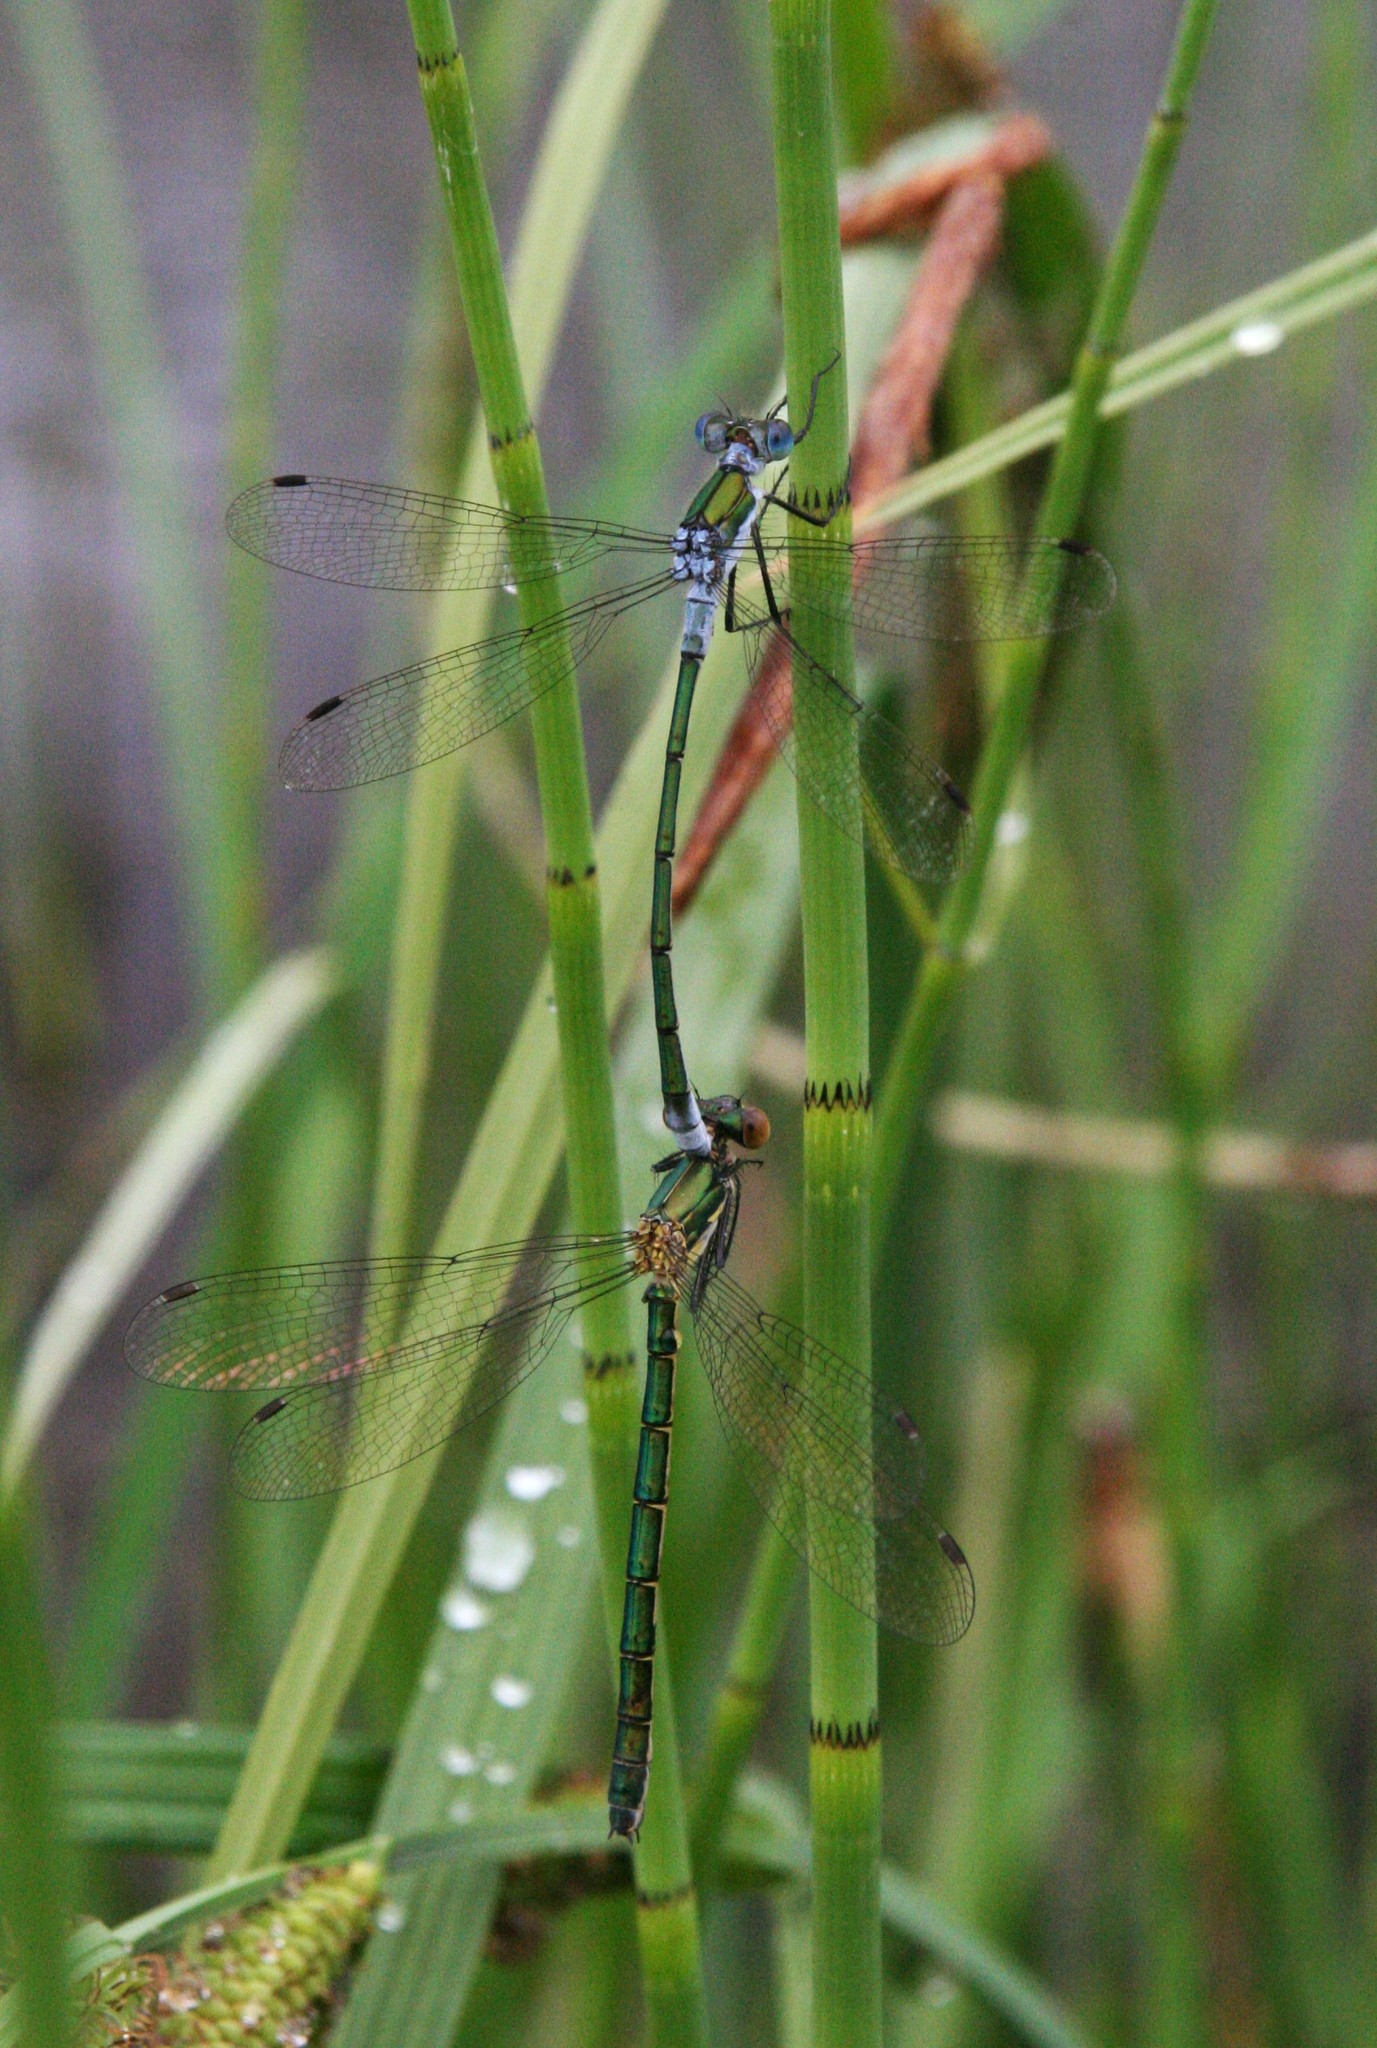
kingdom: Animalia
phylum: Arthropoda
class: Insecta
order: Odonata
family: Lestidae
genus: Lestes
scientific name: Lestes sponsa
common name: Common spreadwing
